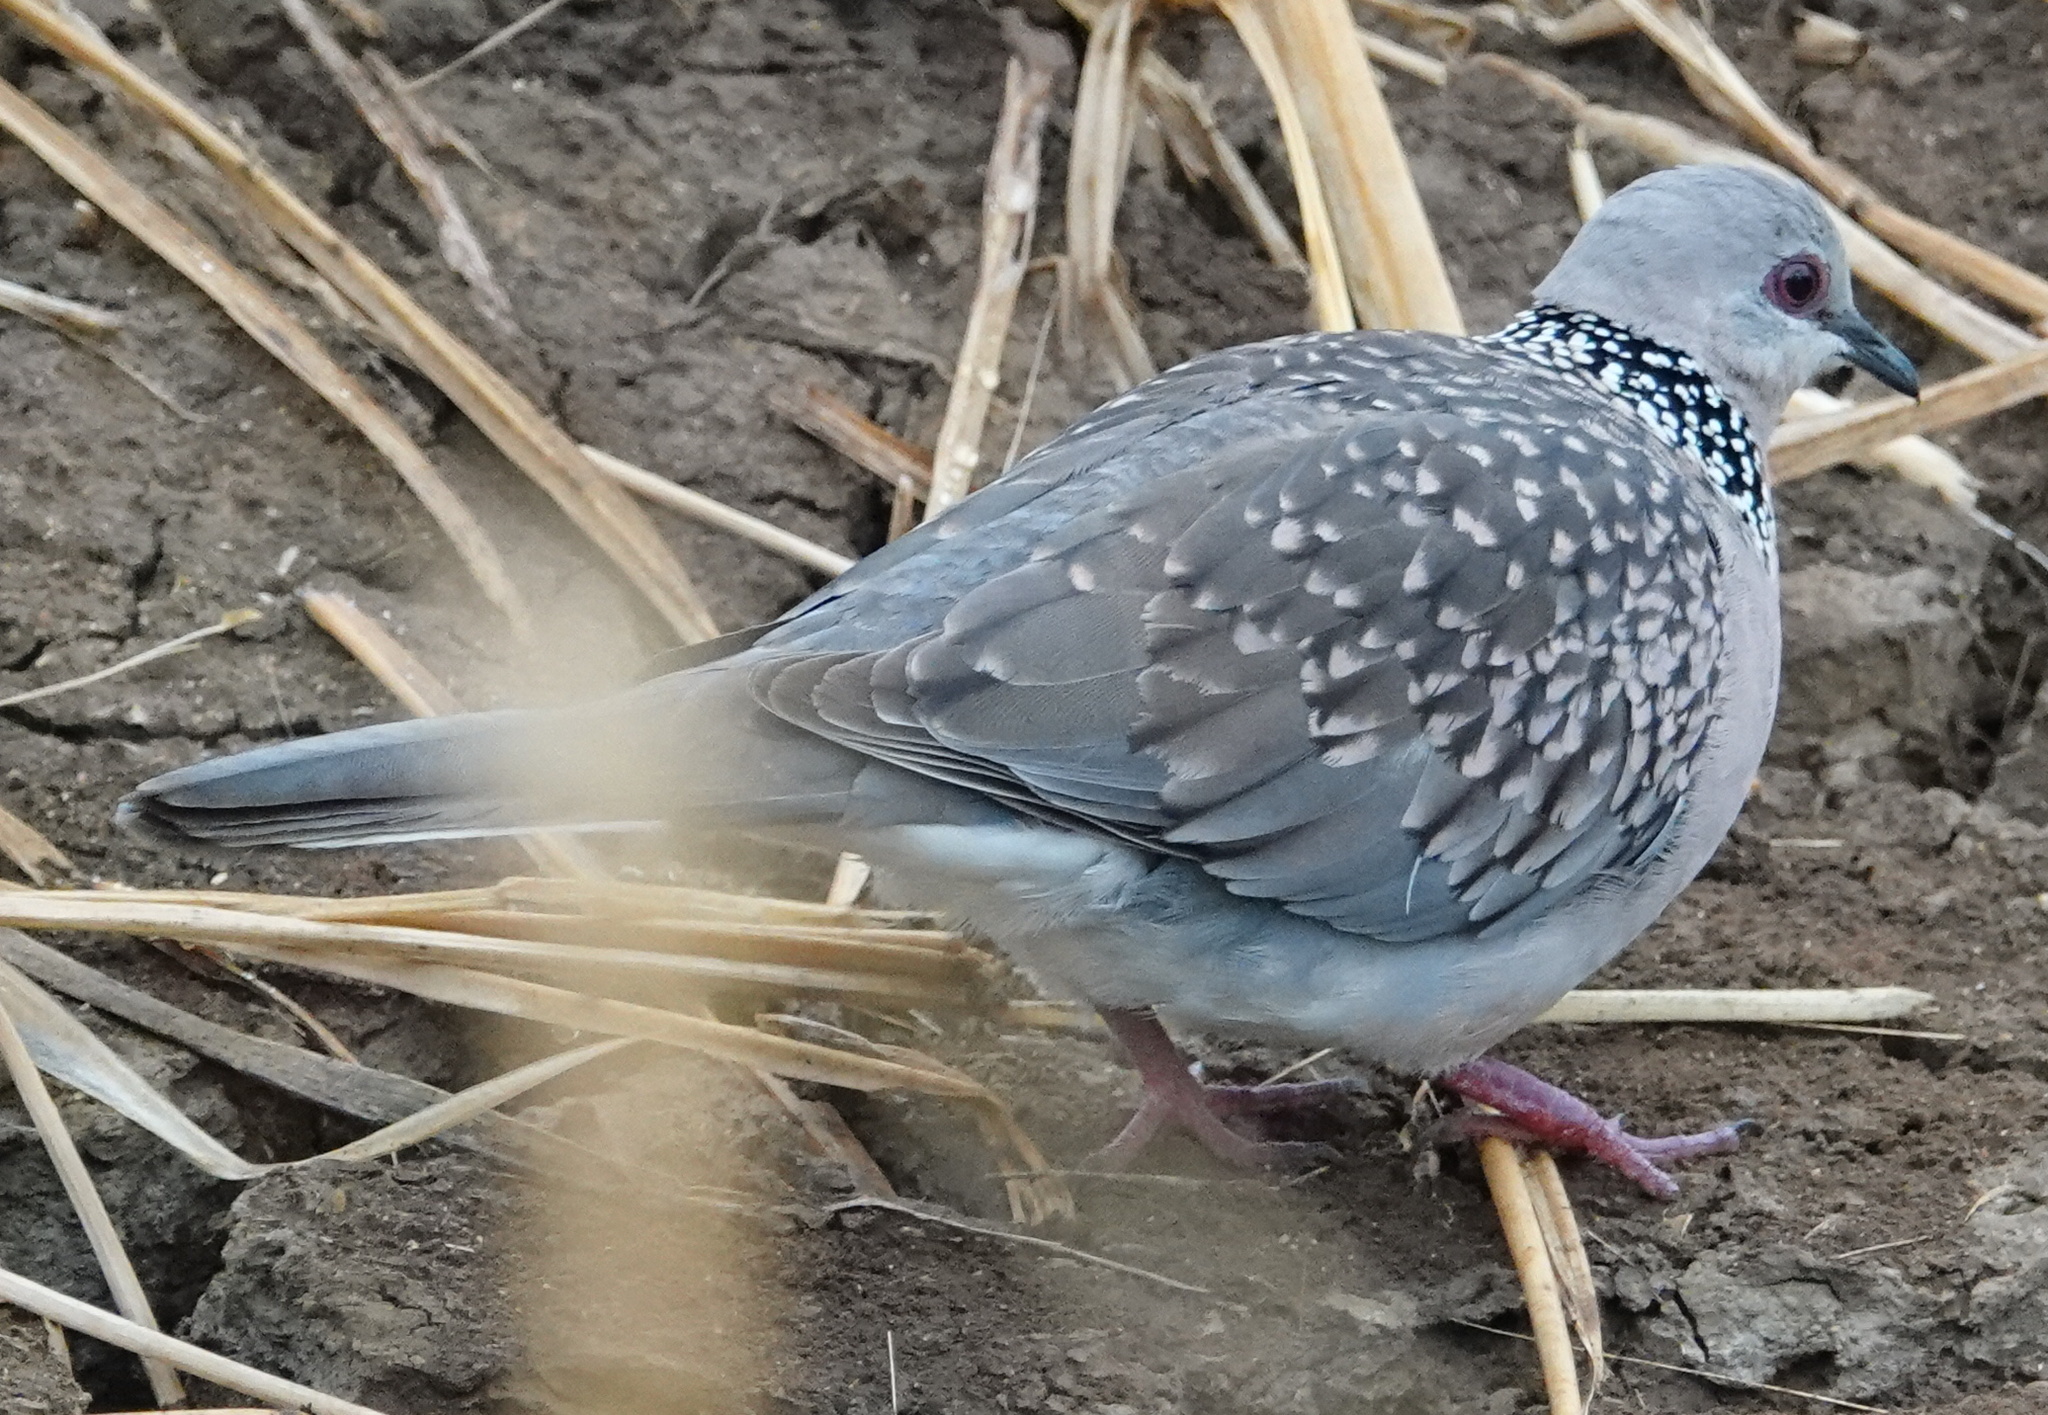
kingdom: Animalia
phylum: Chordata
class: Aves
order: Columbiformes
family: Columbidae
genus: Spilopelia
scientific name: Spilopelia chinensis
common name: Spotted dove
